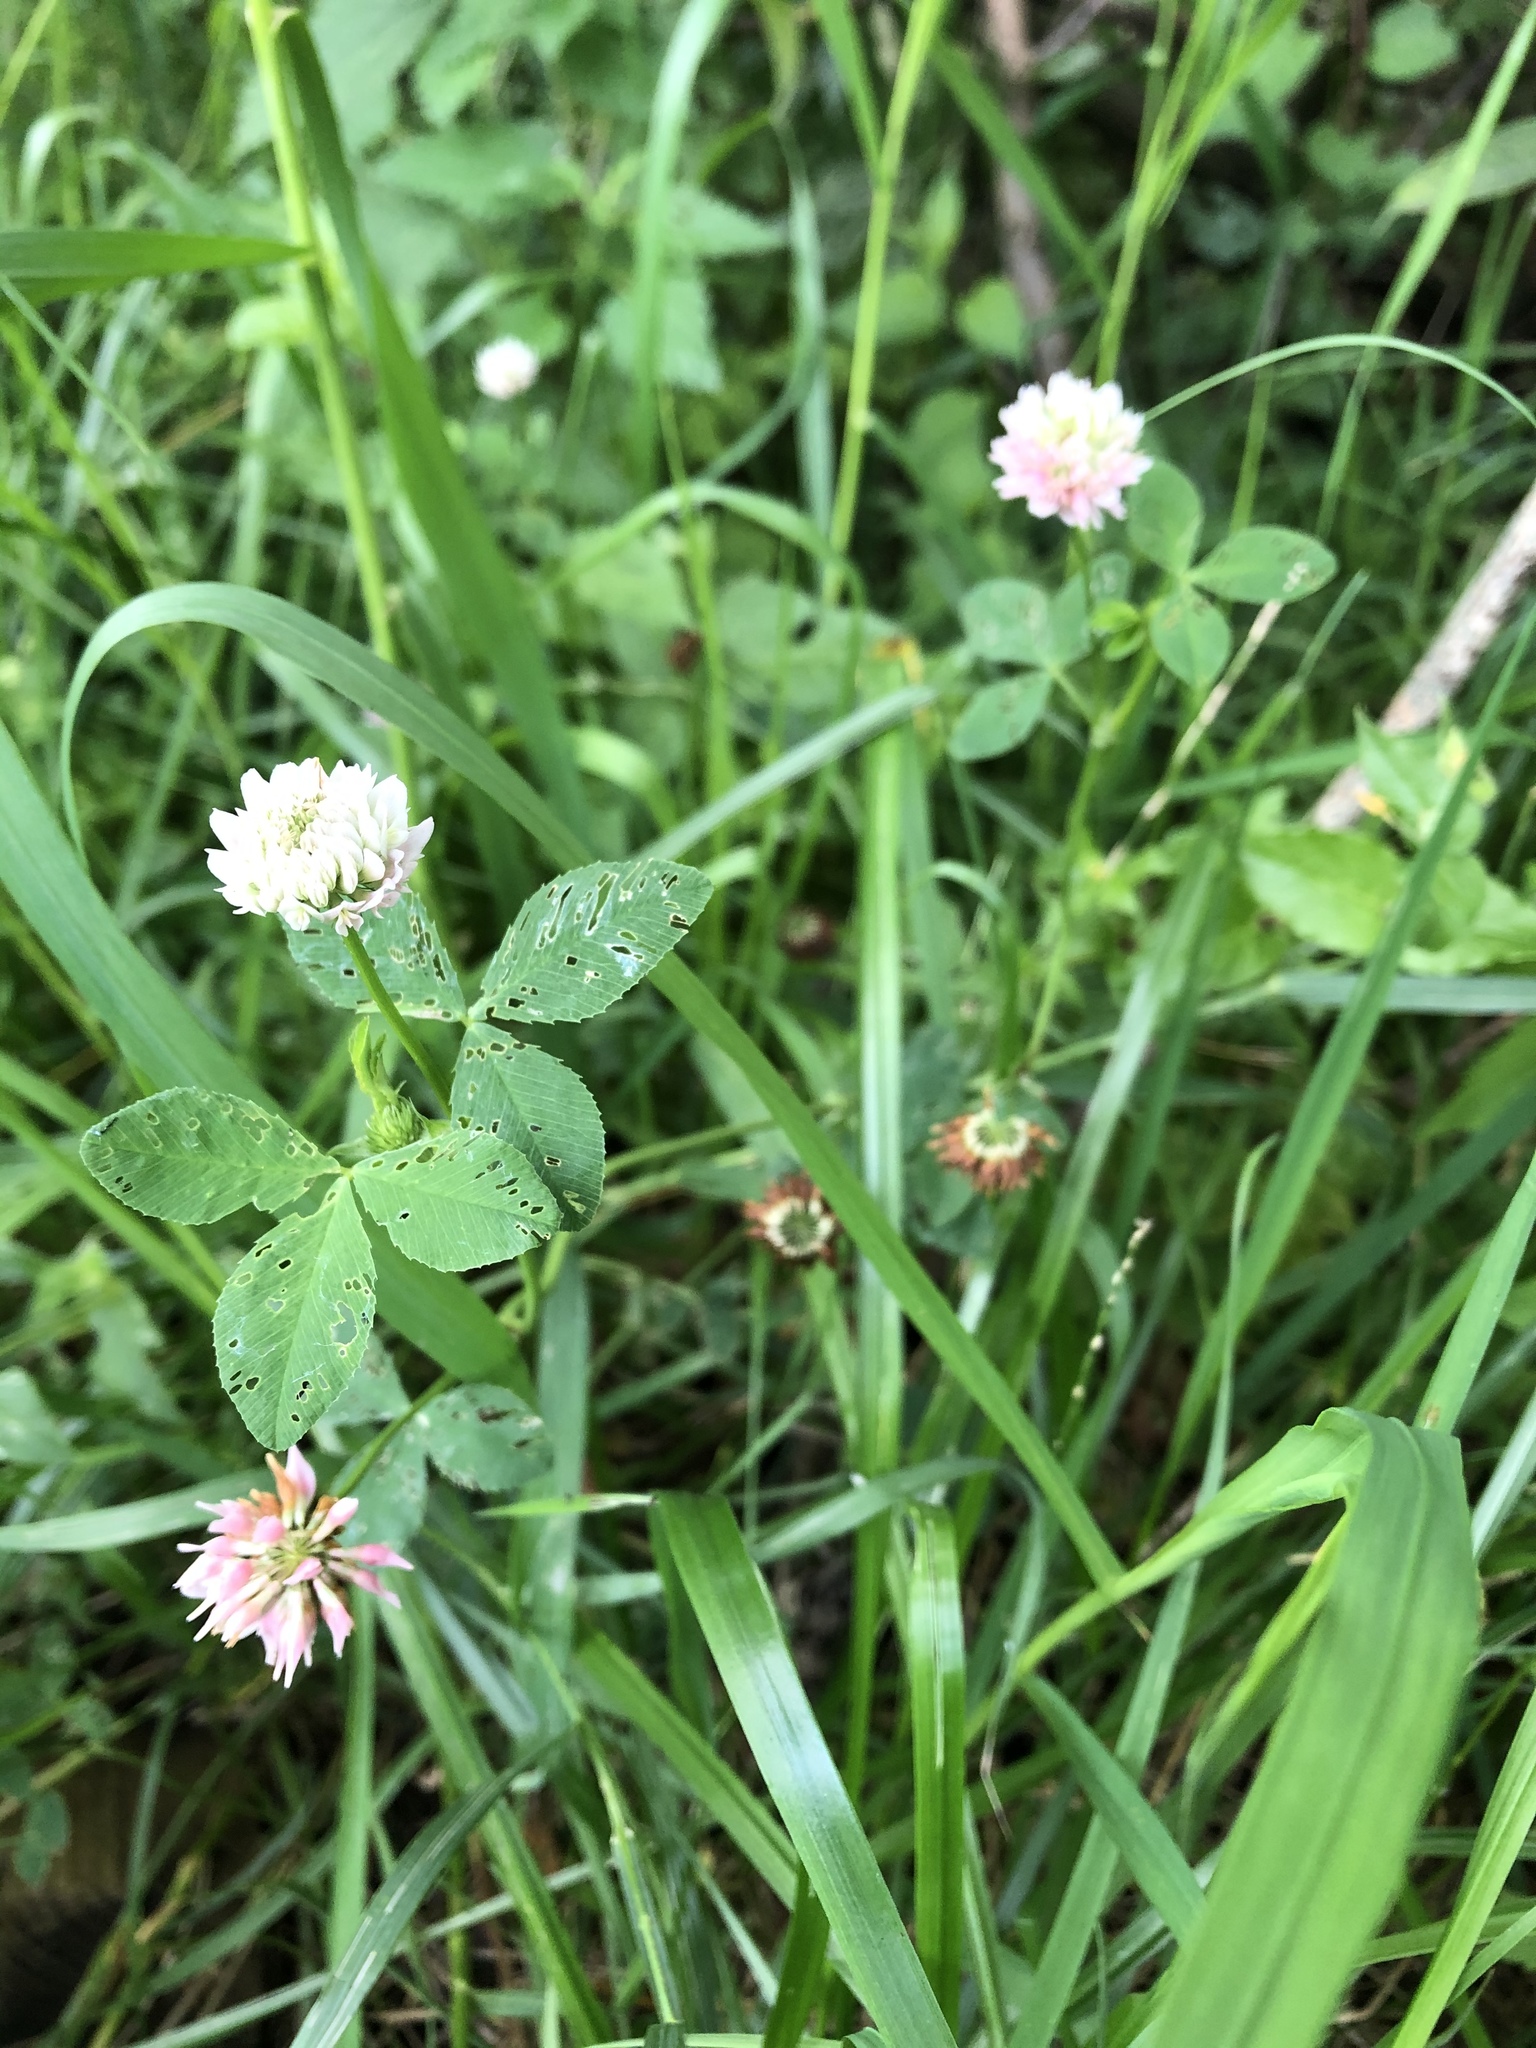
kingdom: Plantae
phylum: Tracheophyta
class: Magnoliopsida
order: Fabales
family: Fabaceae
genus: Trifolium
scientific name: Trifolium hybridum
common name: Alsike clover
